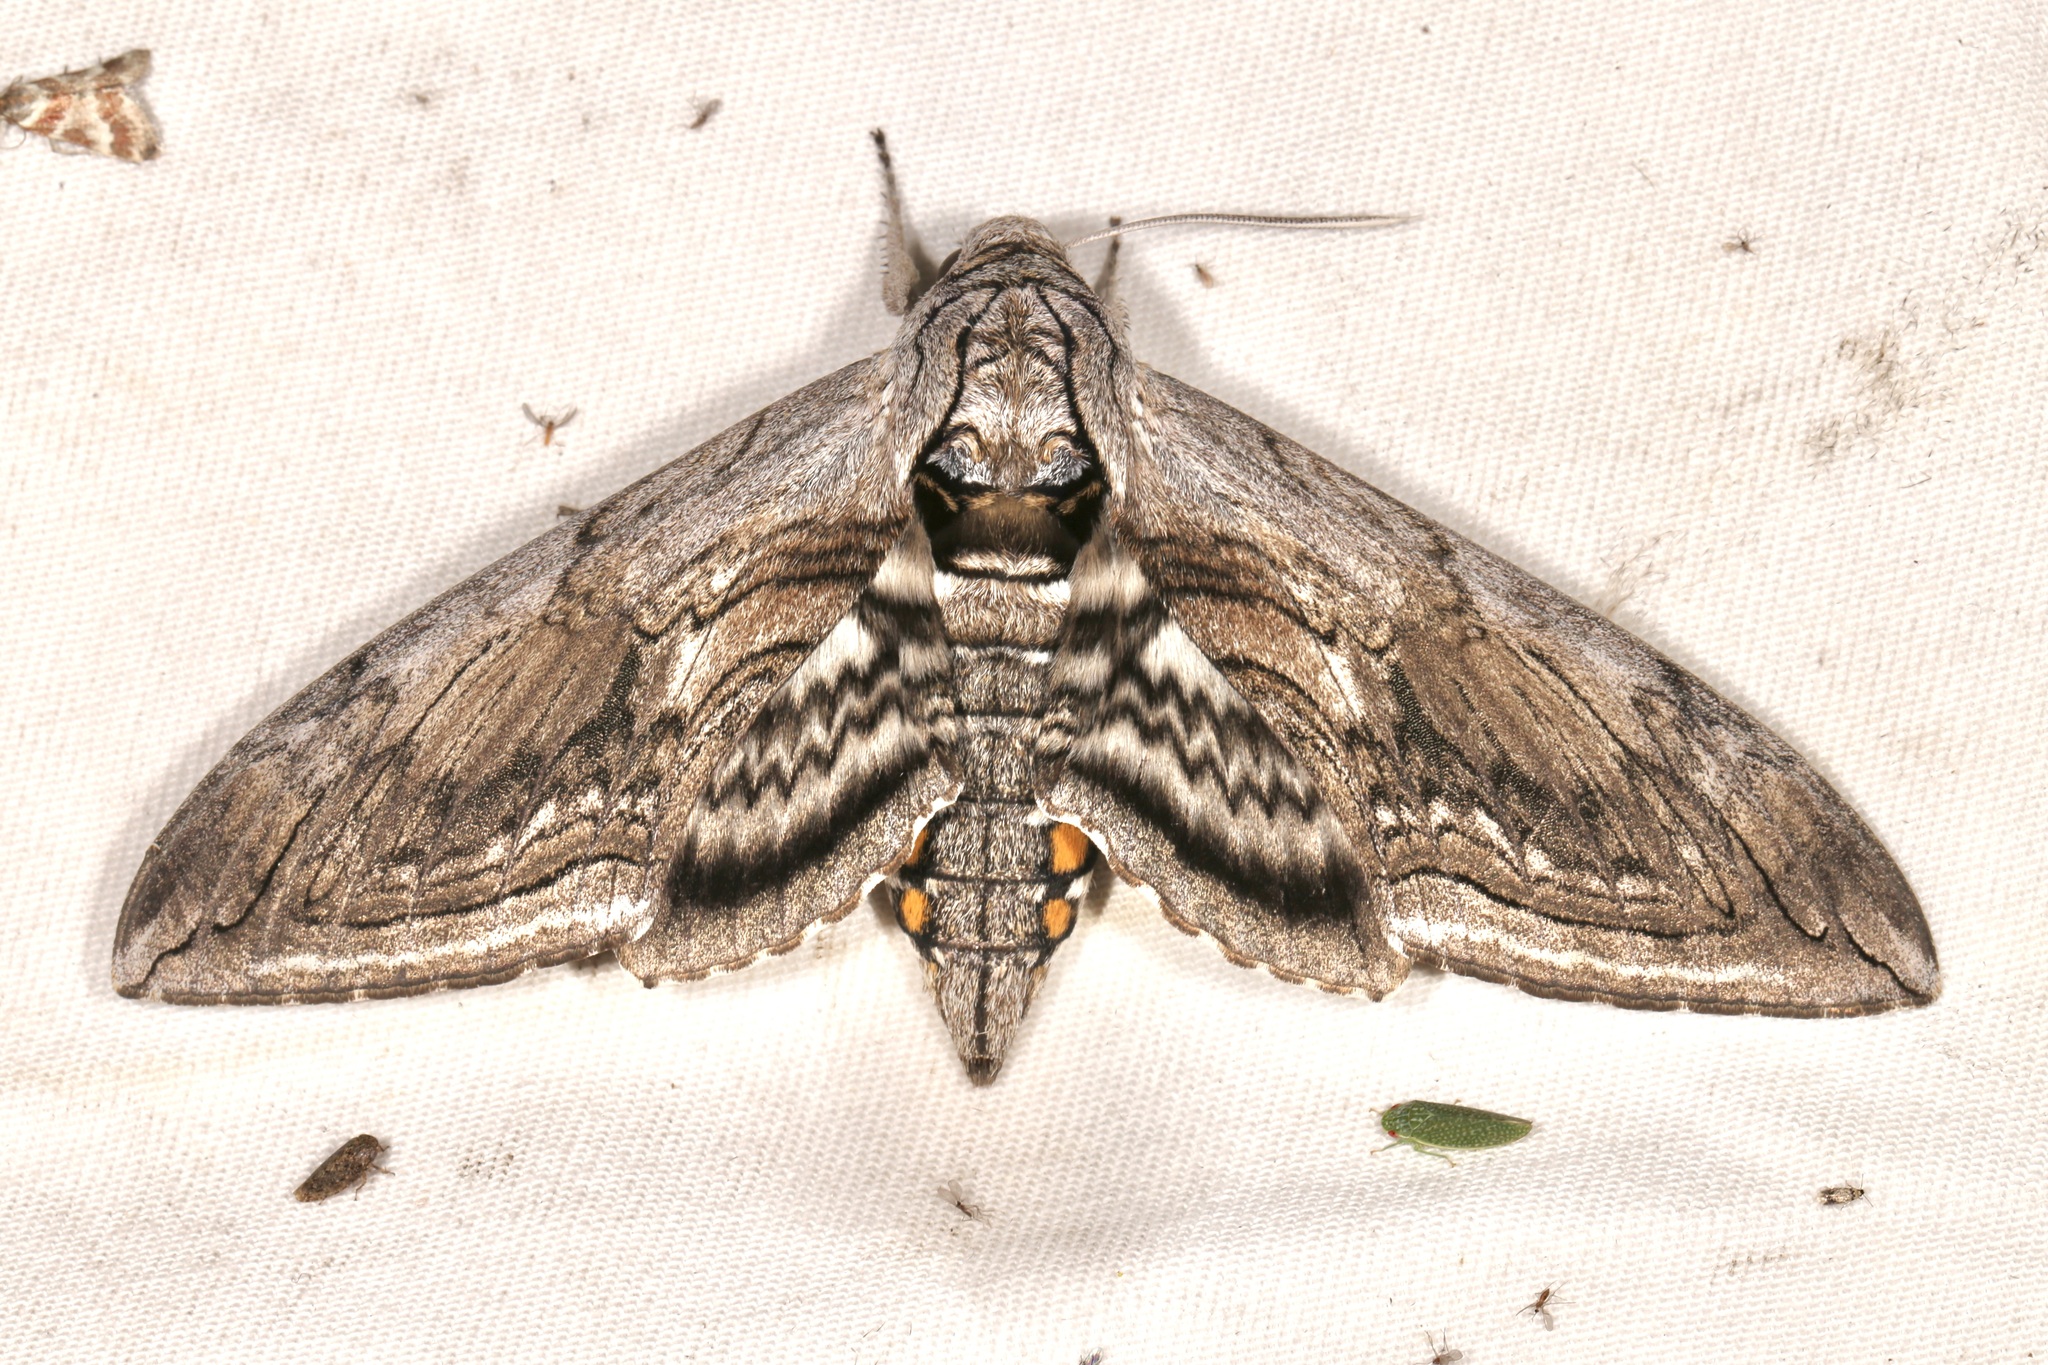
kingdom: Animalia
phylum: Arthropoda
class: Insecta
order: Lepidoptera
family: Sphingidae
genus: Manduca
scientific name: Manduca quinquemaculatus
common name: Five-spotted hawk-moth
